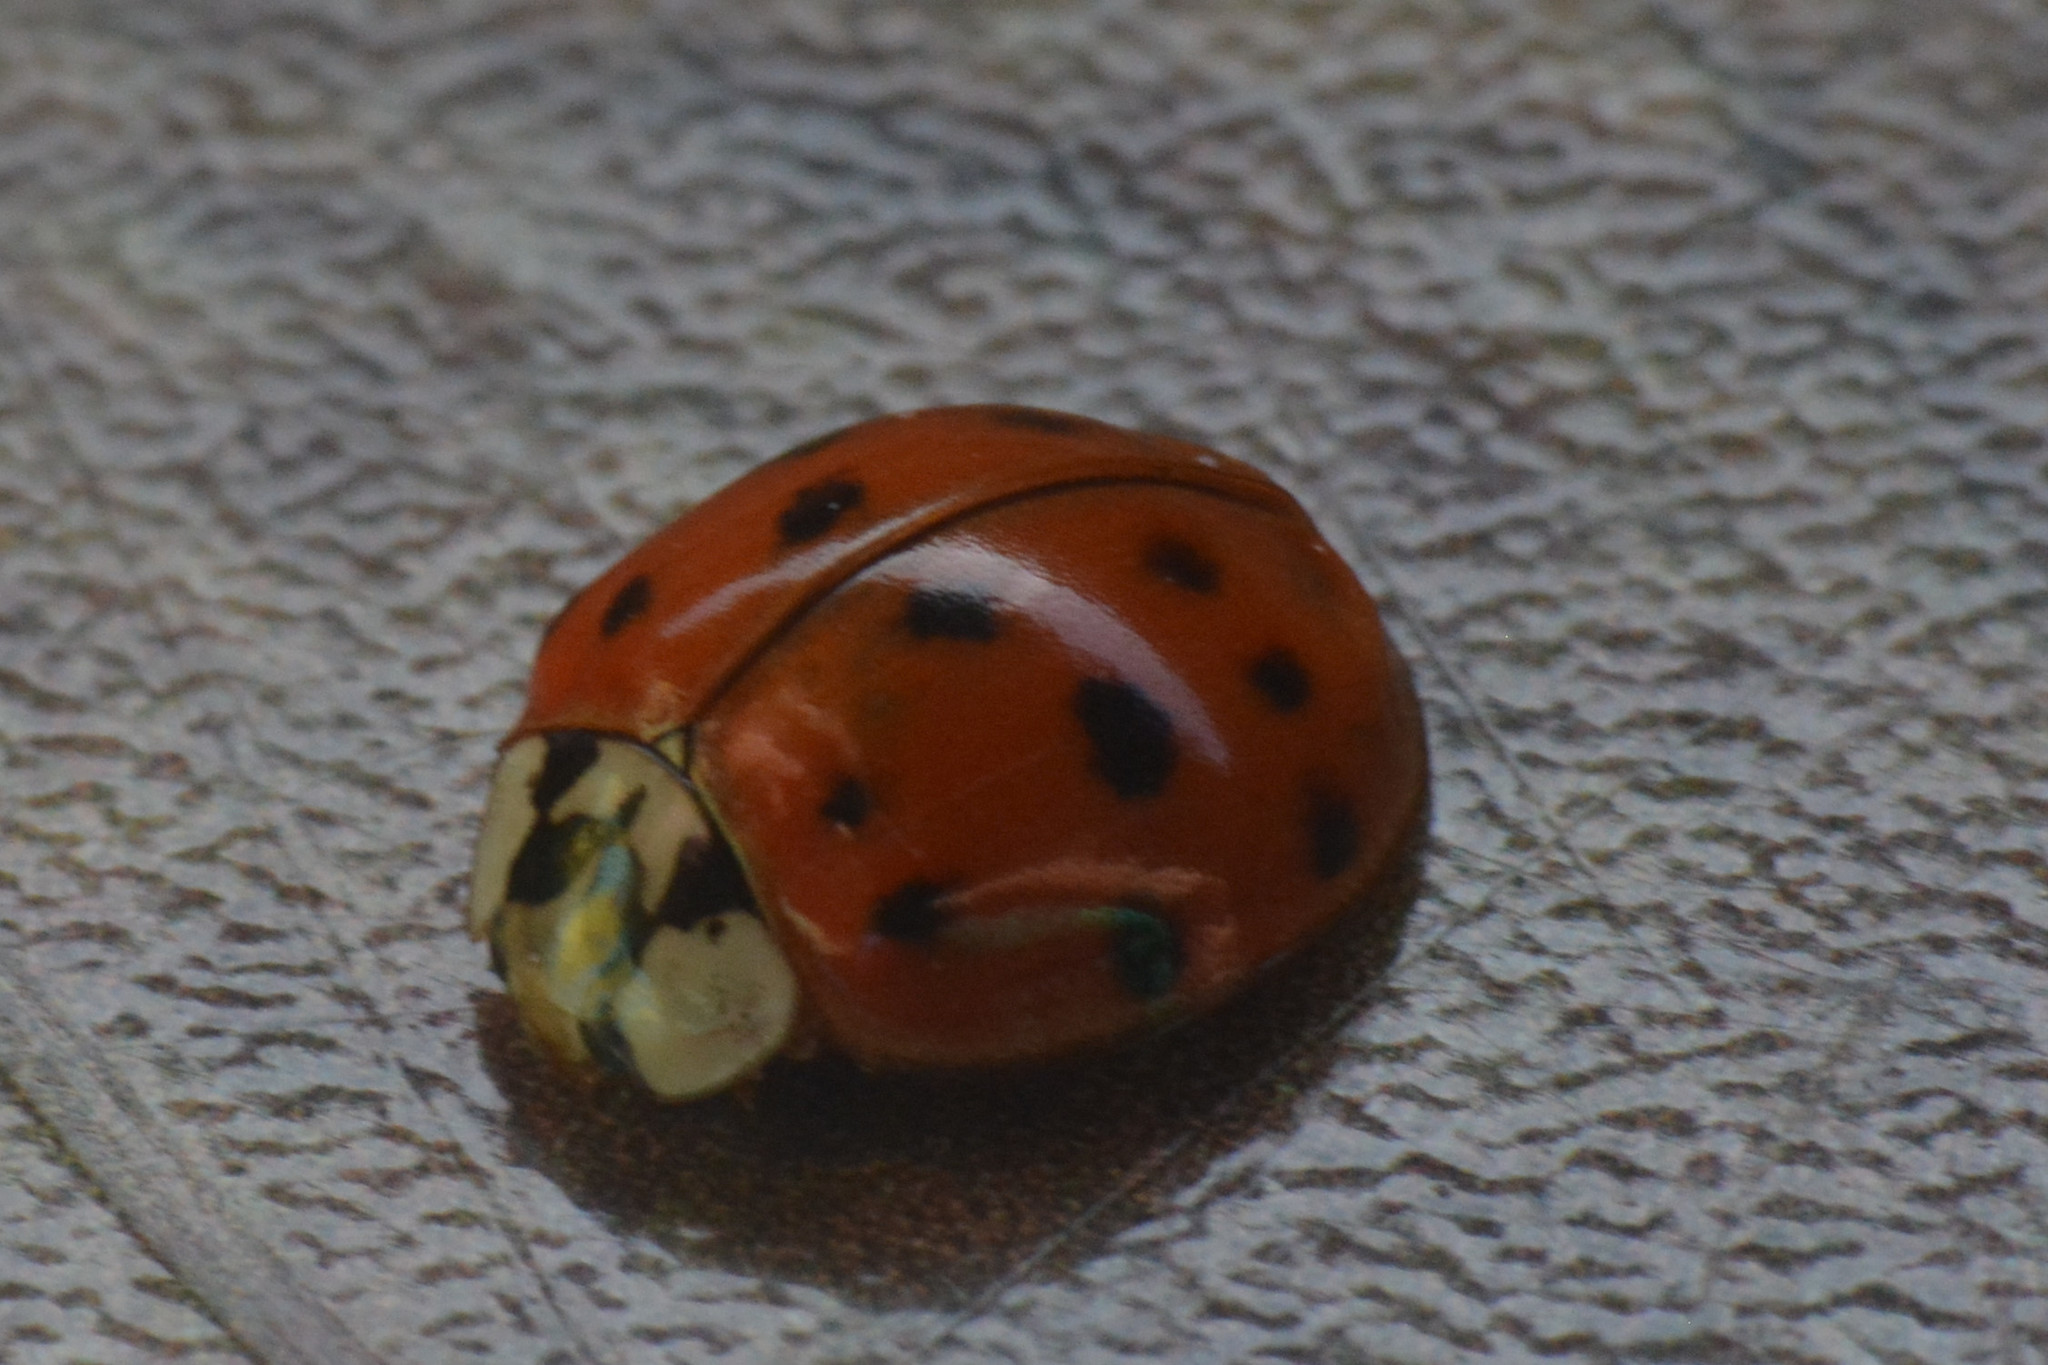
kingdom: Animalia
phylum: Arthropoda
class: Insecta
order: Coleoptera
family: Coccinellidae
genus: Harmonia
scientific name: Harmonia axyridis
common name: Harlequin ladybird
